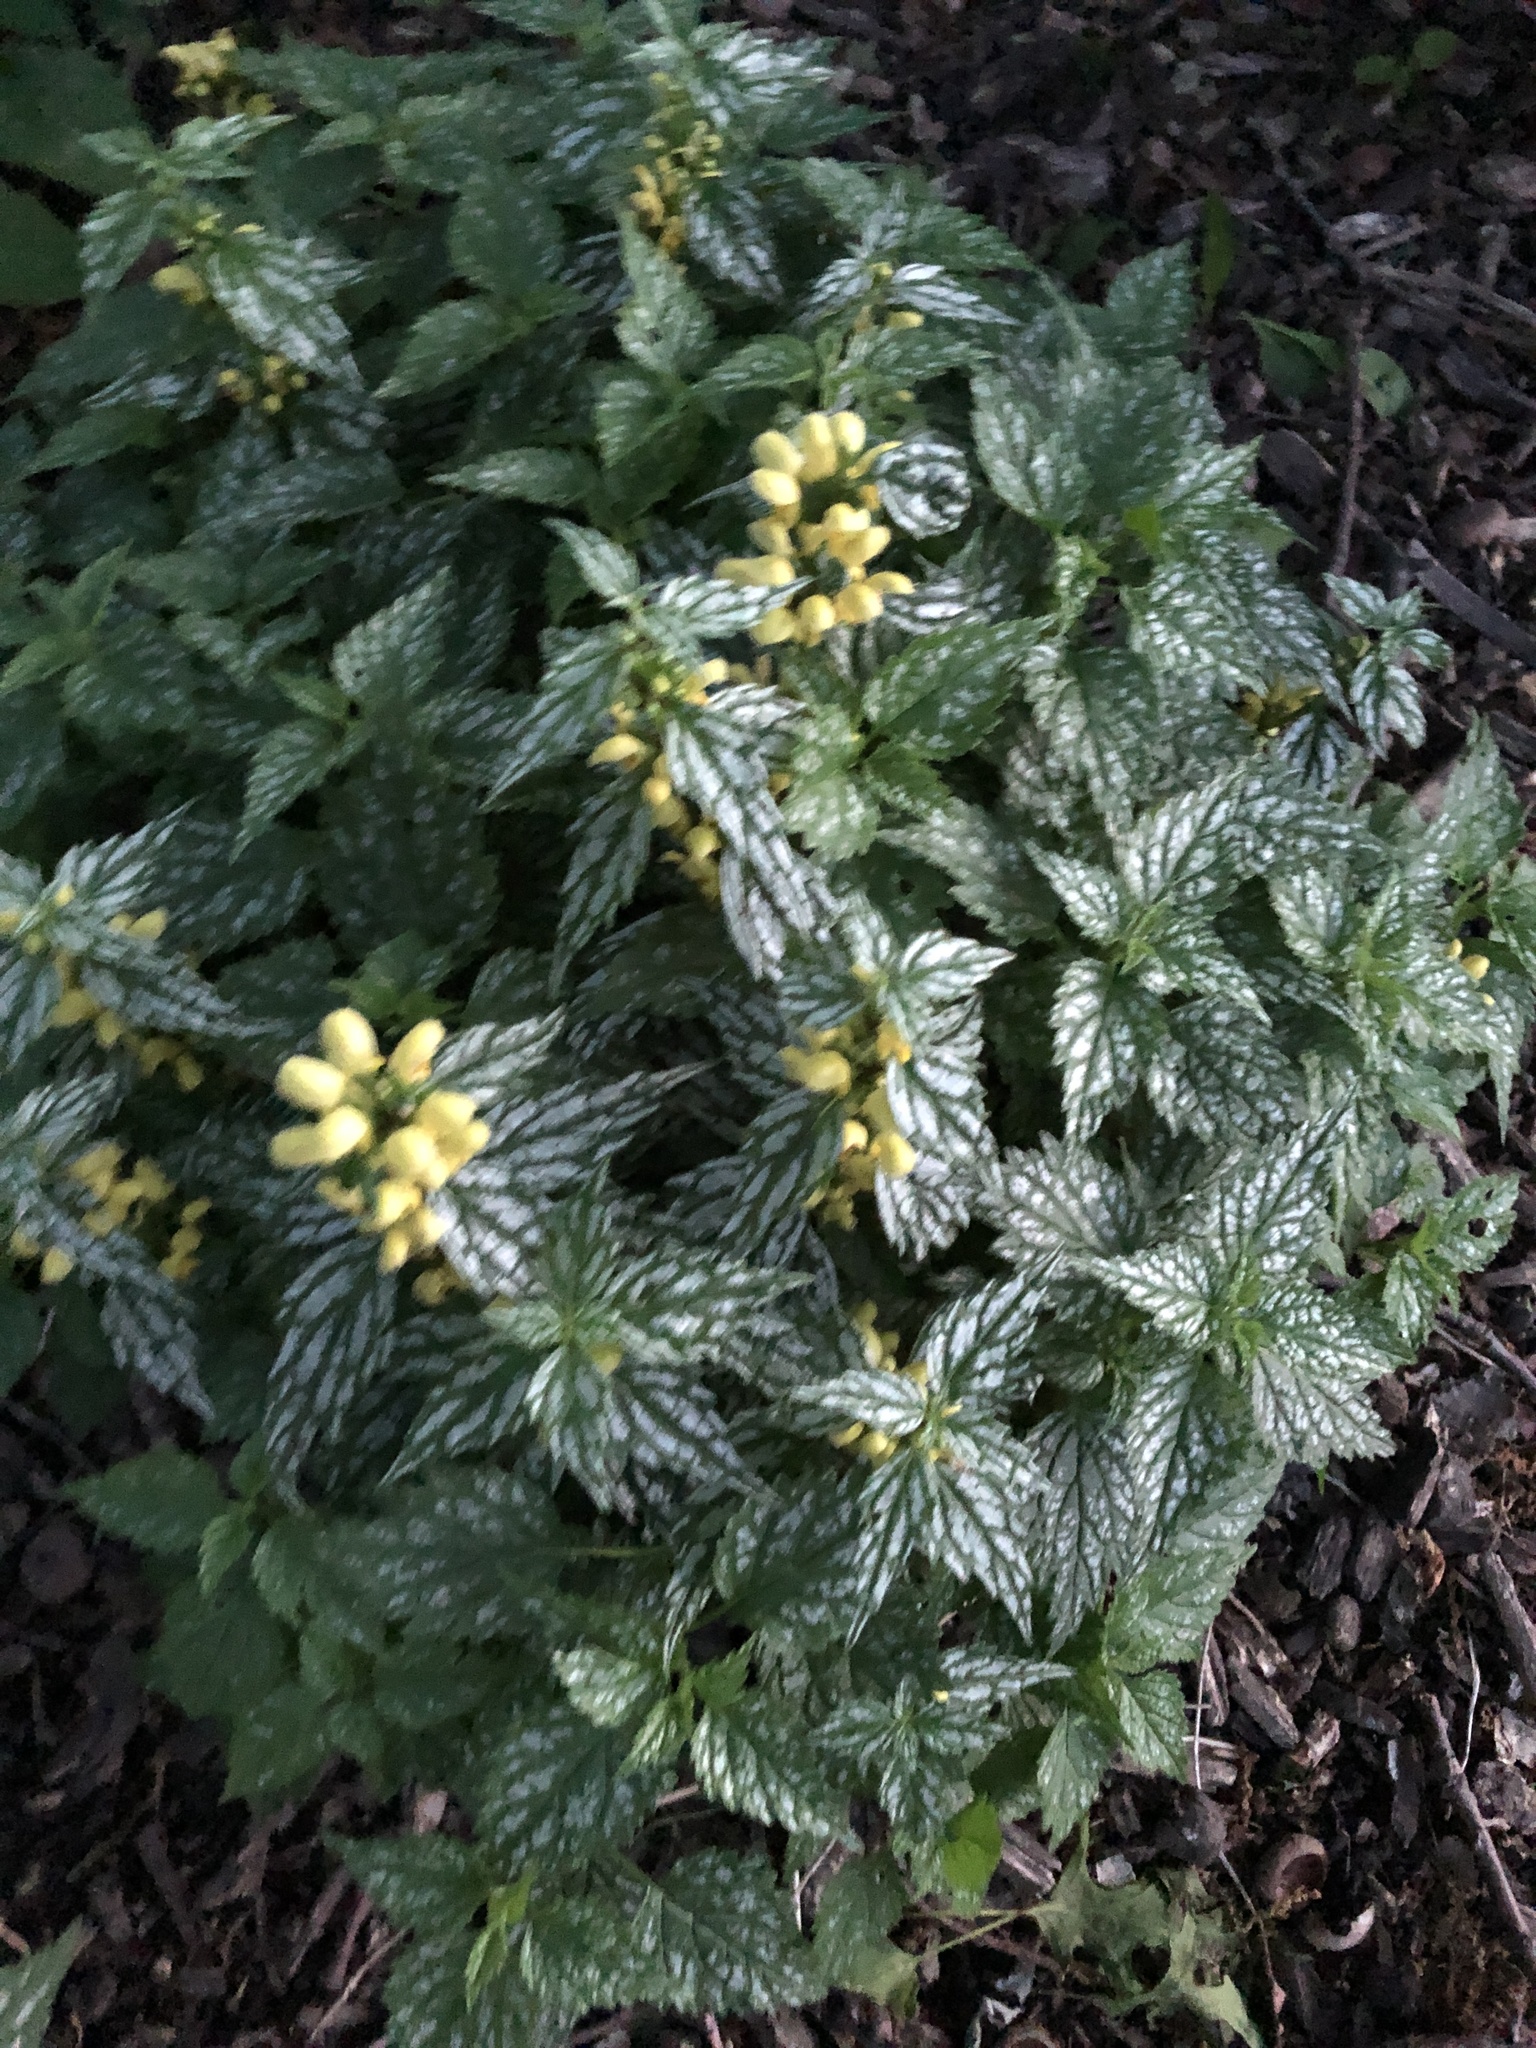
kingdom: Plantae
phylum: Tracheophyta
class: Magnoliopsida
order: Lamiales
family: Lamiaceae
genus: Lamium
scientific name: Lamium galeobdolon
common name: Yellow archangel
